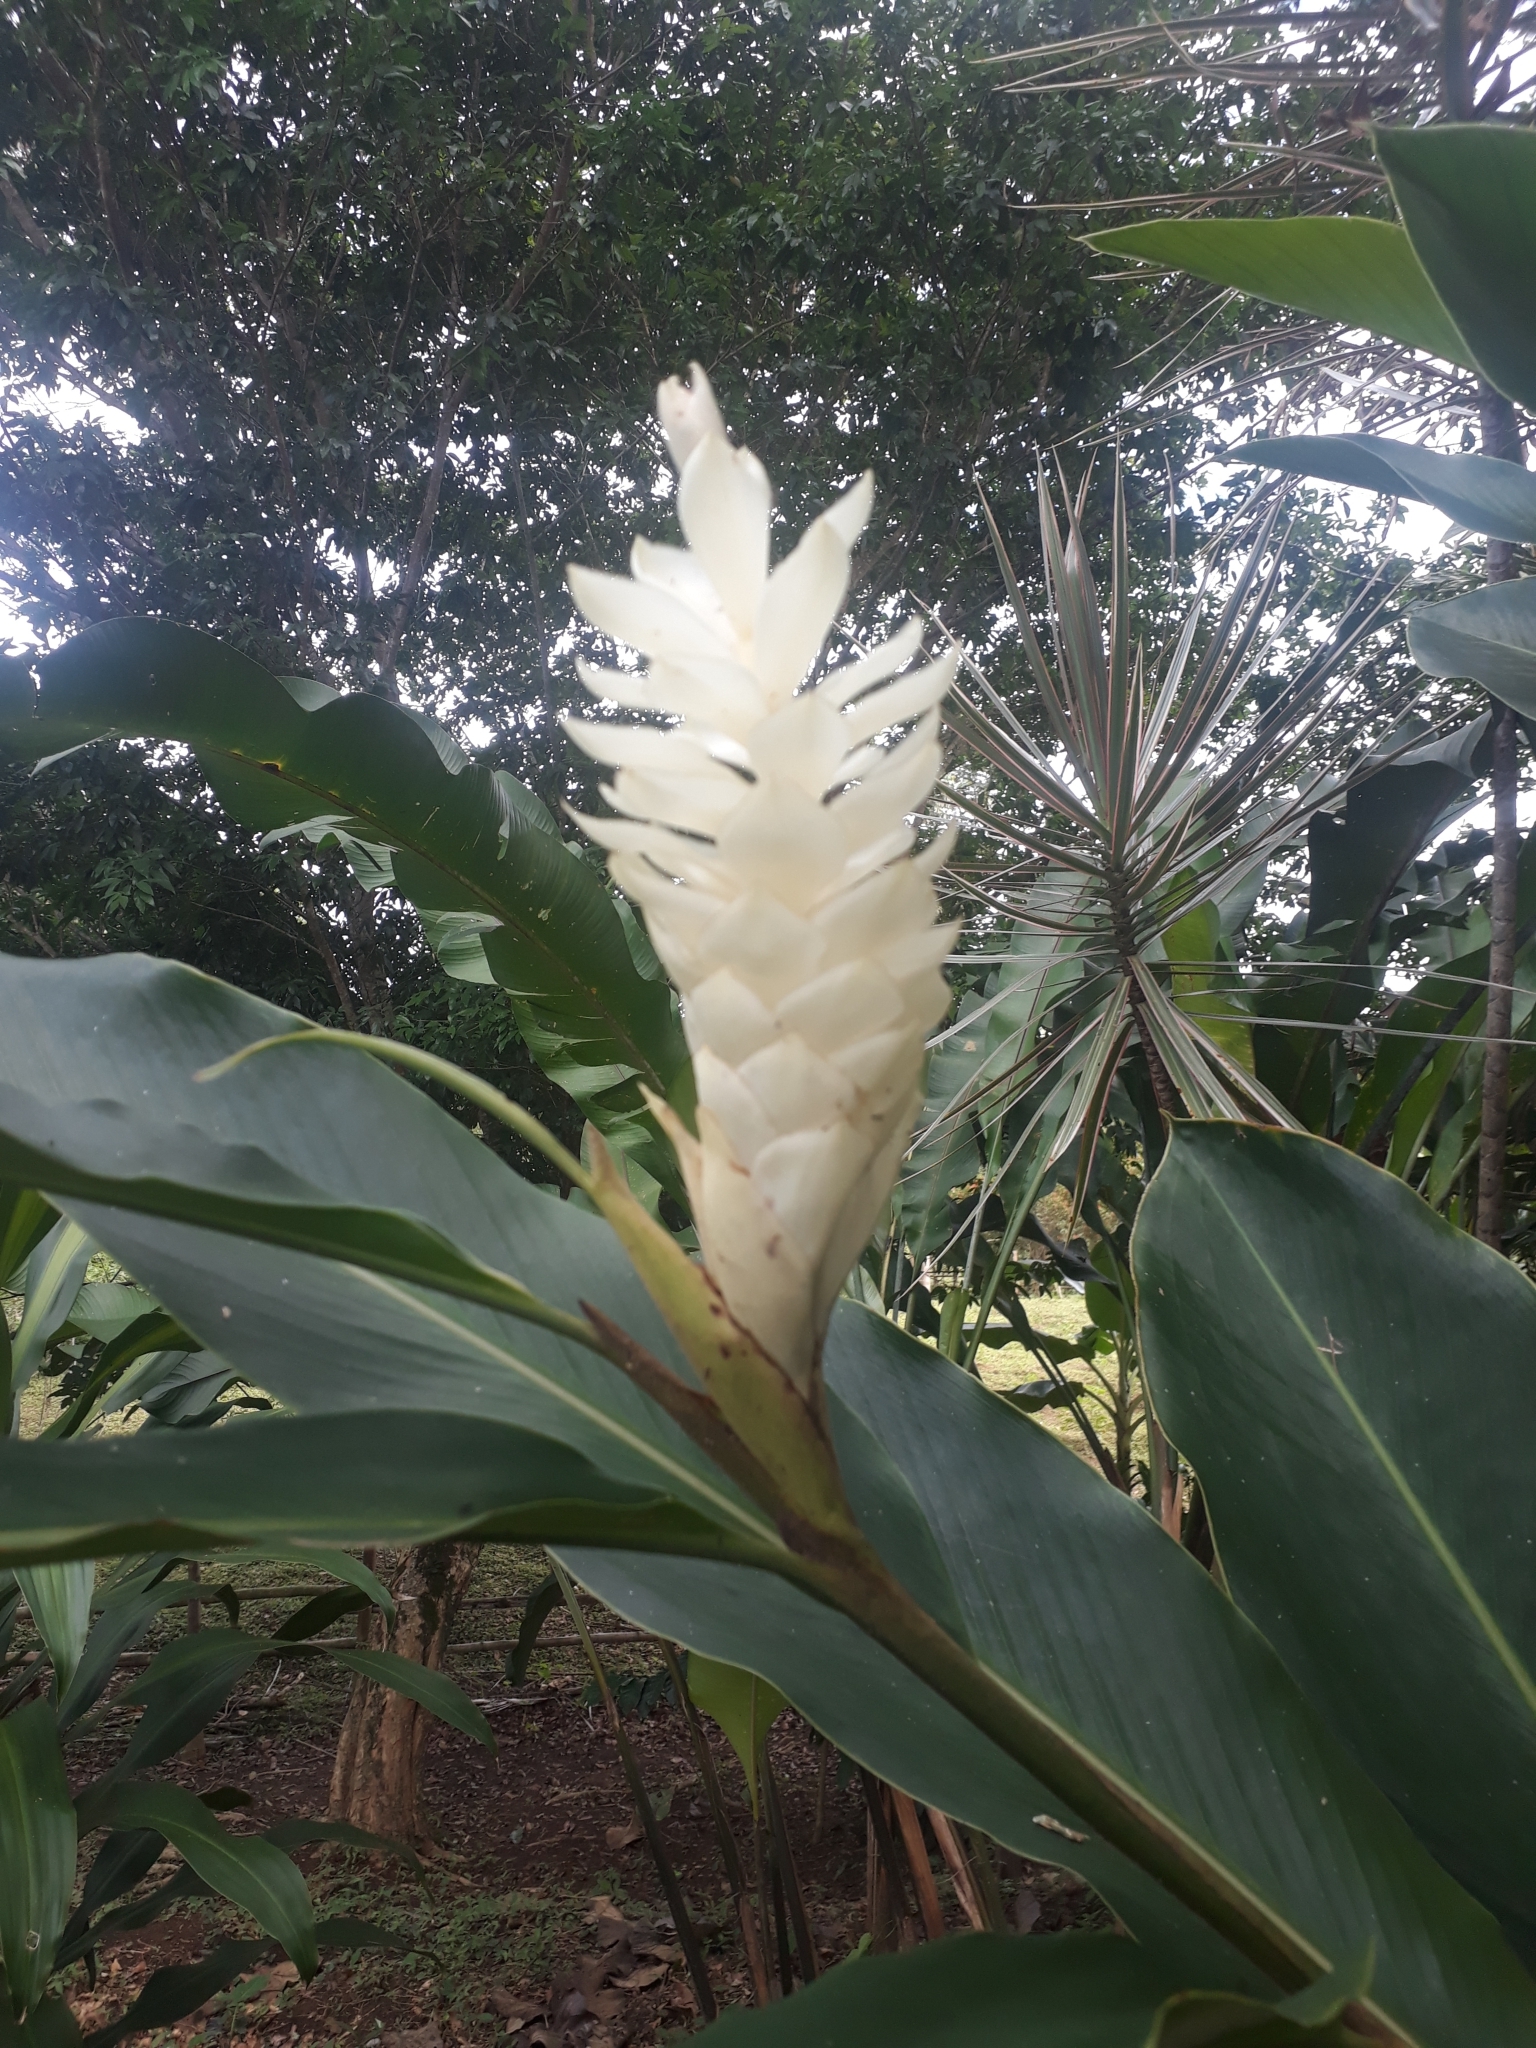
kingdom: Plantae
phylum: Tracheophyta
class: Liliopsida
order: Zingiberales
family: Zingiberaceae
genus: Alpinia
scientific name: Alpinia purpurata
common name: Red ginger
